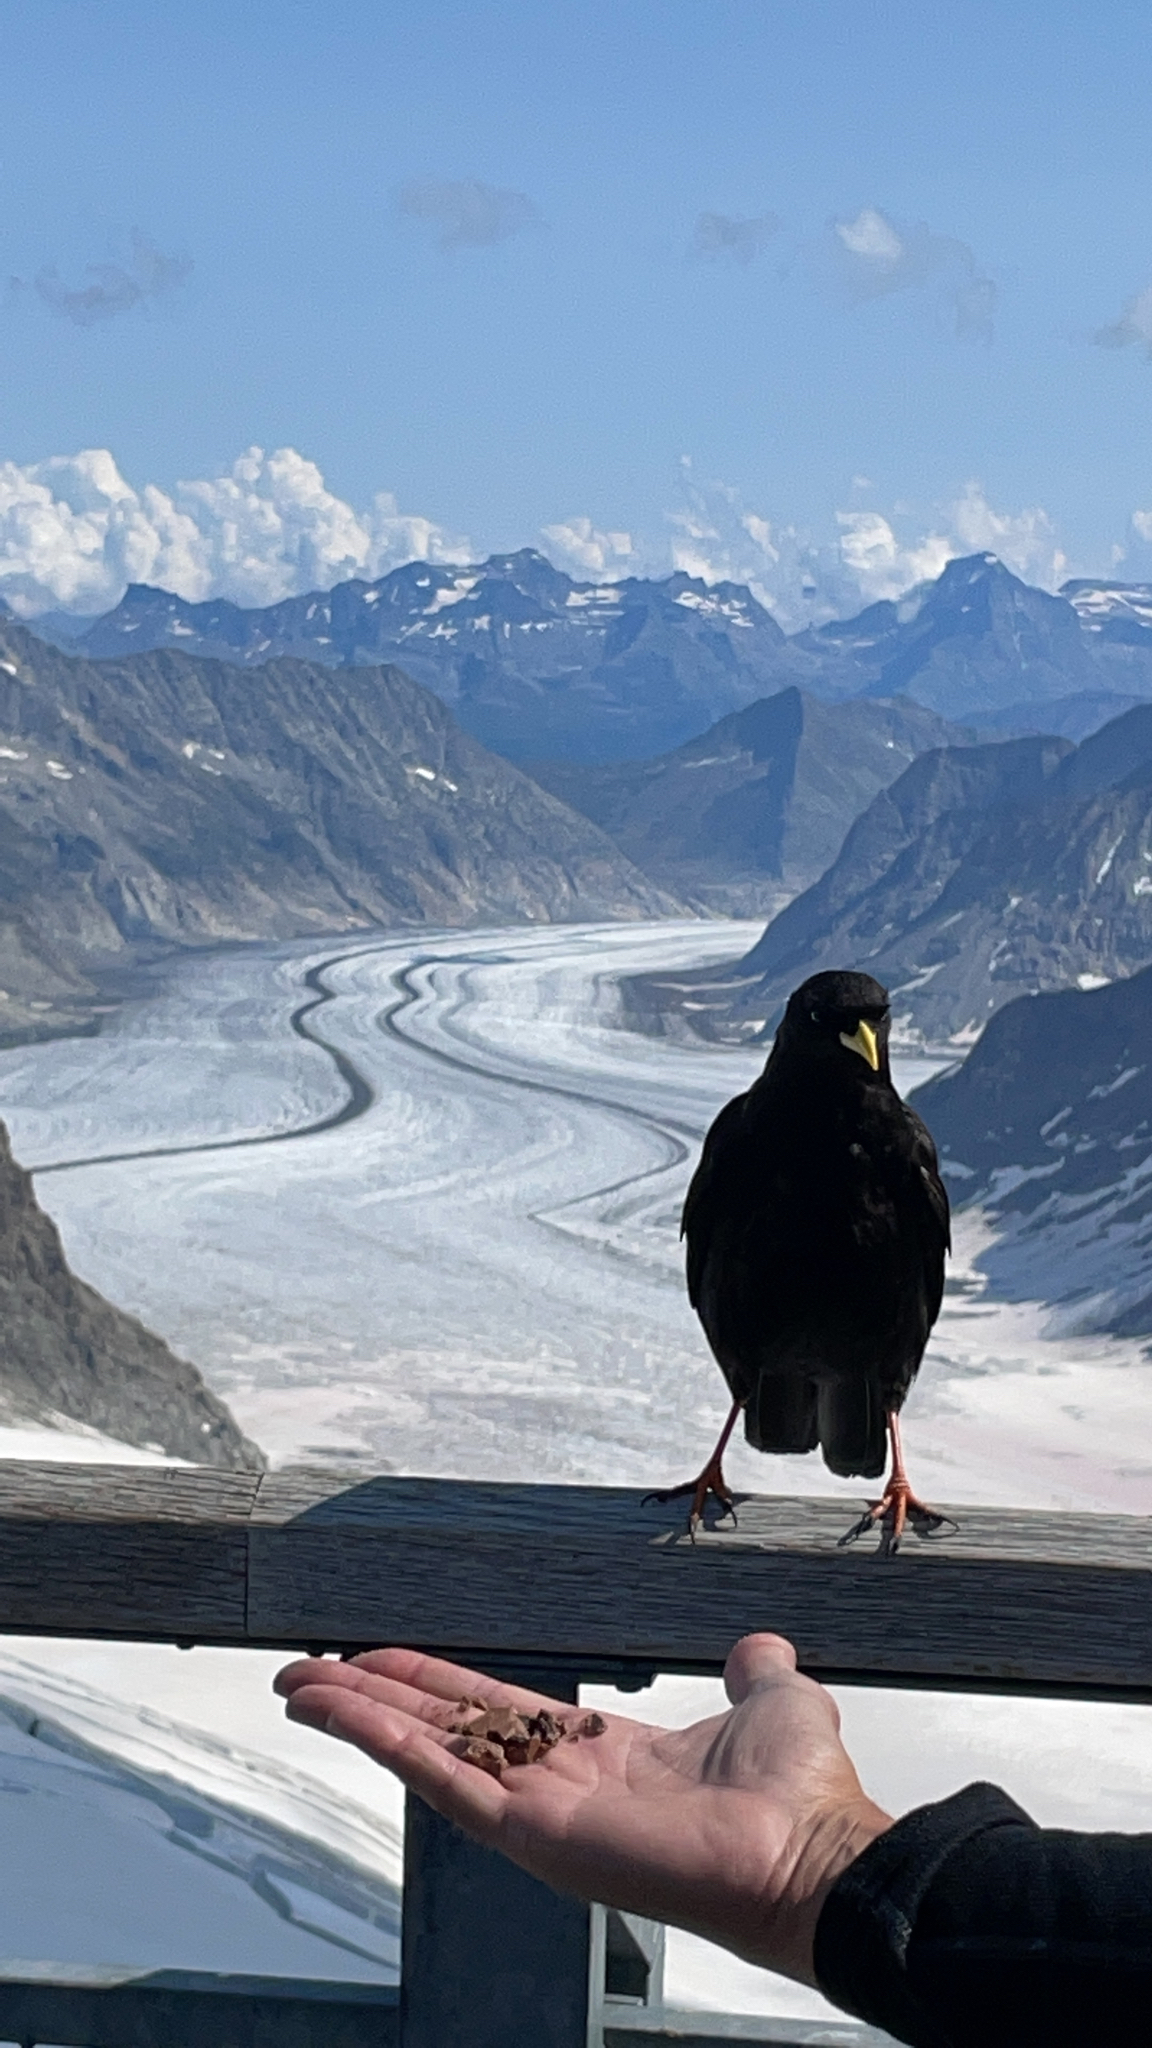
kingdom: Animalia
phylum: Chordata
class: Aves
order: Passeriformes
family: Corvidae
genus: Pyrrhocorax
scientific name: Pyrrhocorax graculus
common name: Alpine chough
